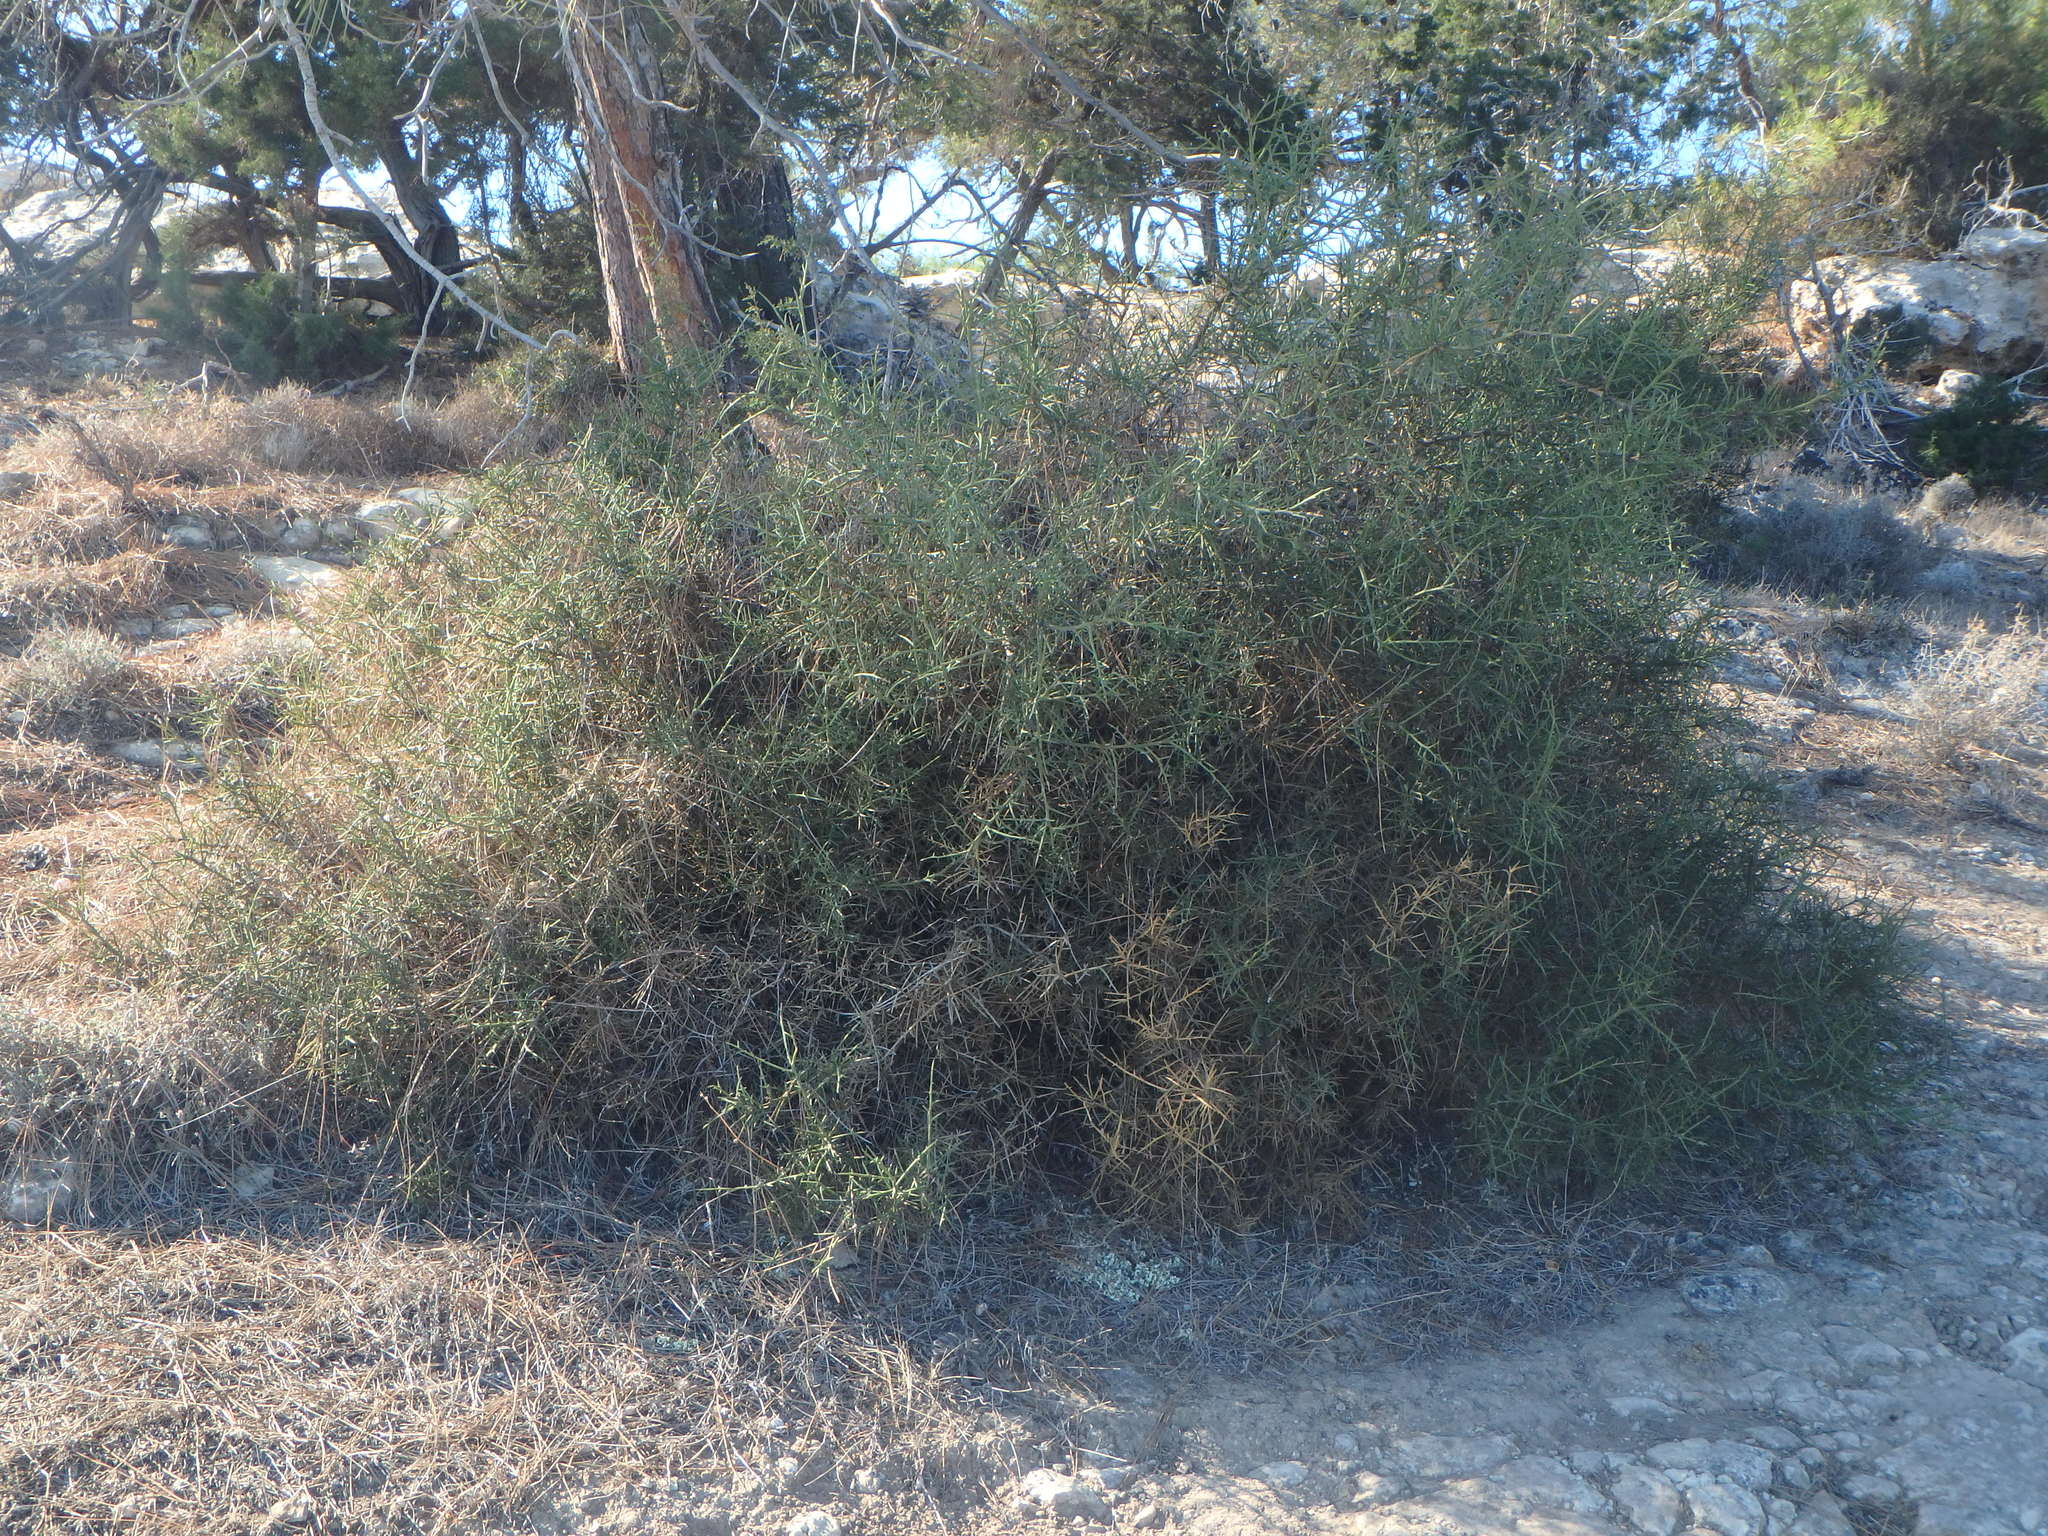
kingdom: Plantae
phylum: Tracheophyta
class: Magnoliopsida
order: Fabales
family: Fabaceae
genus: Genista
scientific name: Genista fasselata
